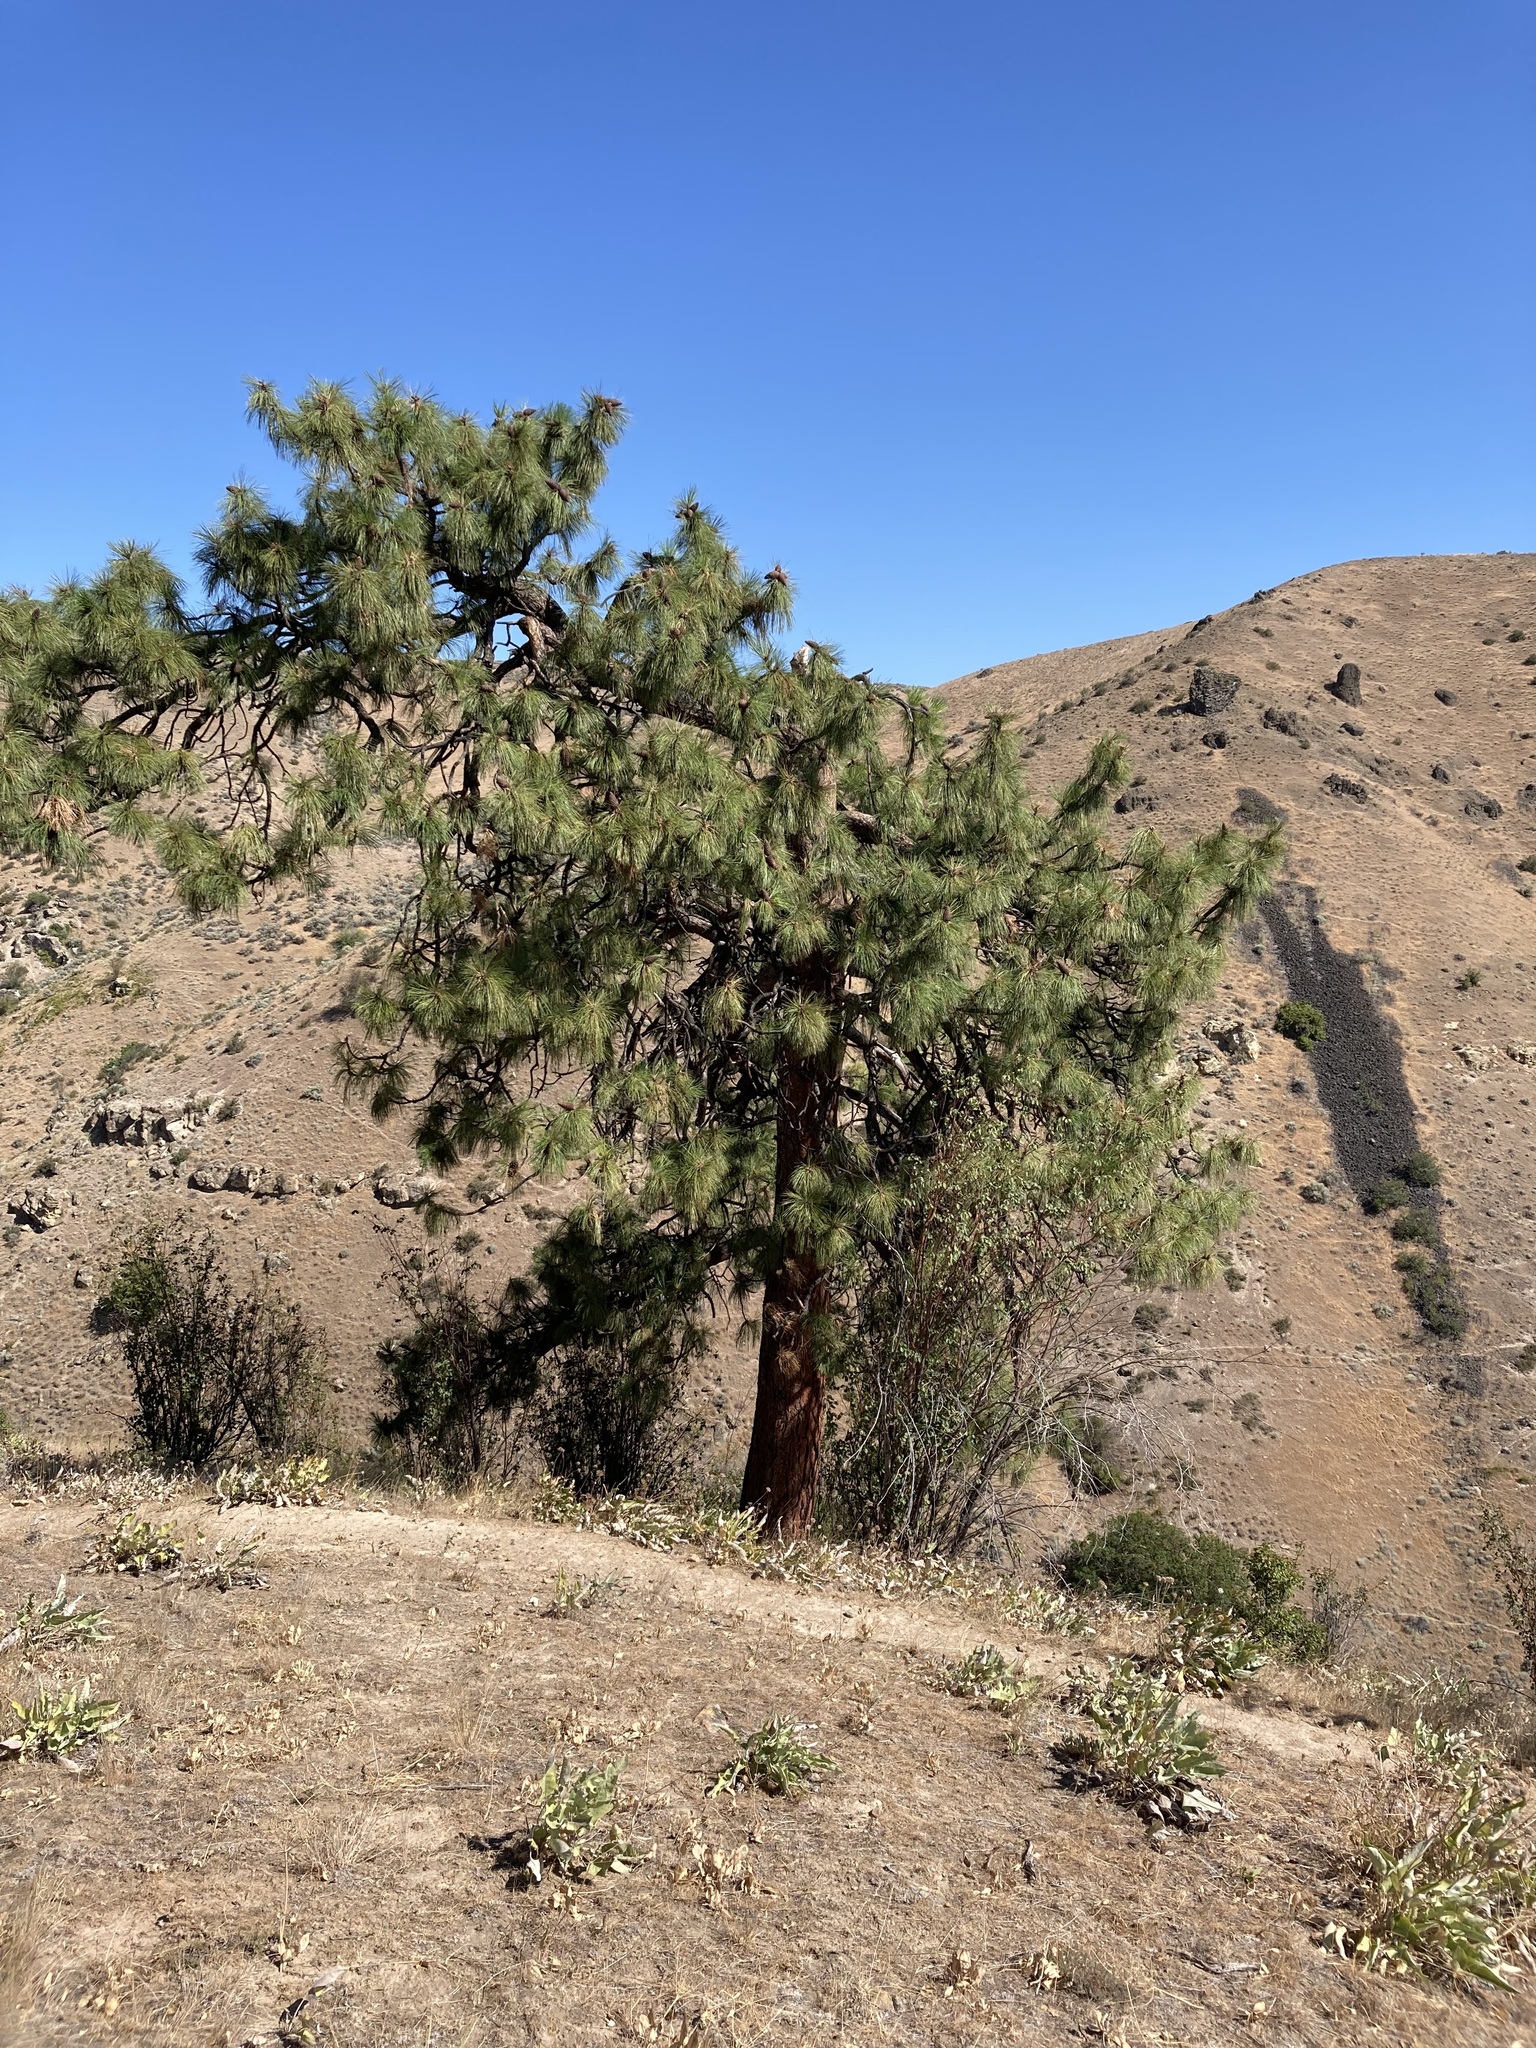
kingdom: Plantae
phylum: Tracheophyta
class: Pinopsida
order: Pinales
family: Pinaceae
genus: Pinus
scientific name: Pinus ponderosa
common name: Western yellow-pine
